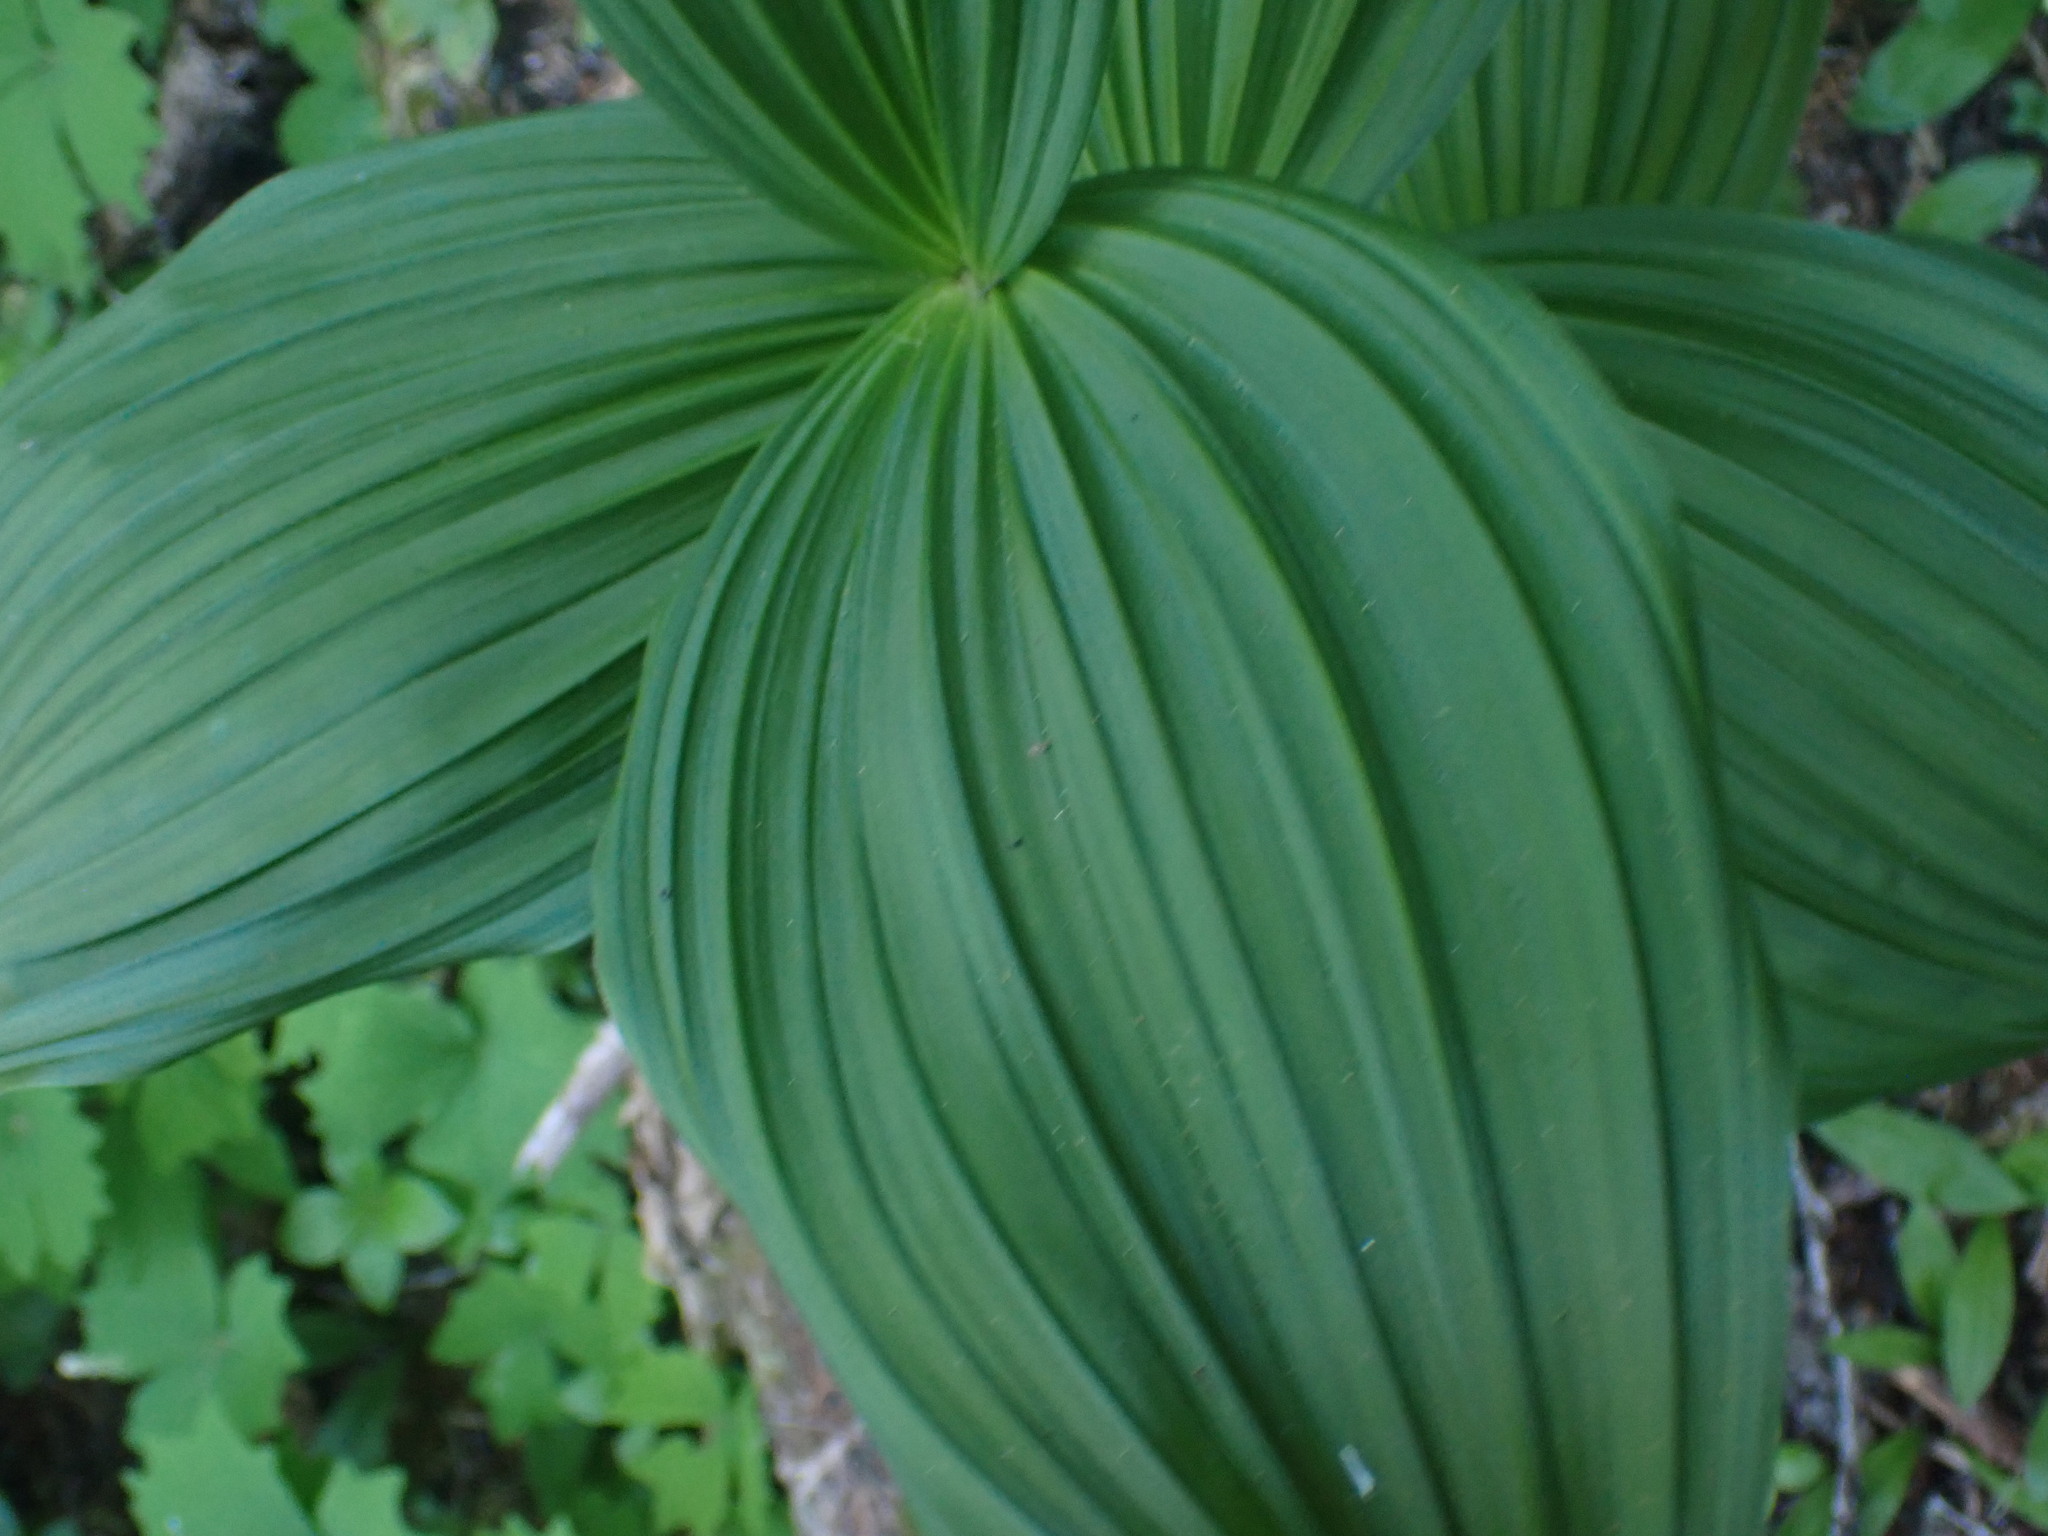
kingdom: Plantae
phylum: Tracheophyta
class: Liliopsida
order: Liliales
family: Melanthiaceae
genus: Veratrum
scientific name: Veratrum viride
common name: American false hellebore
